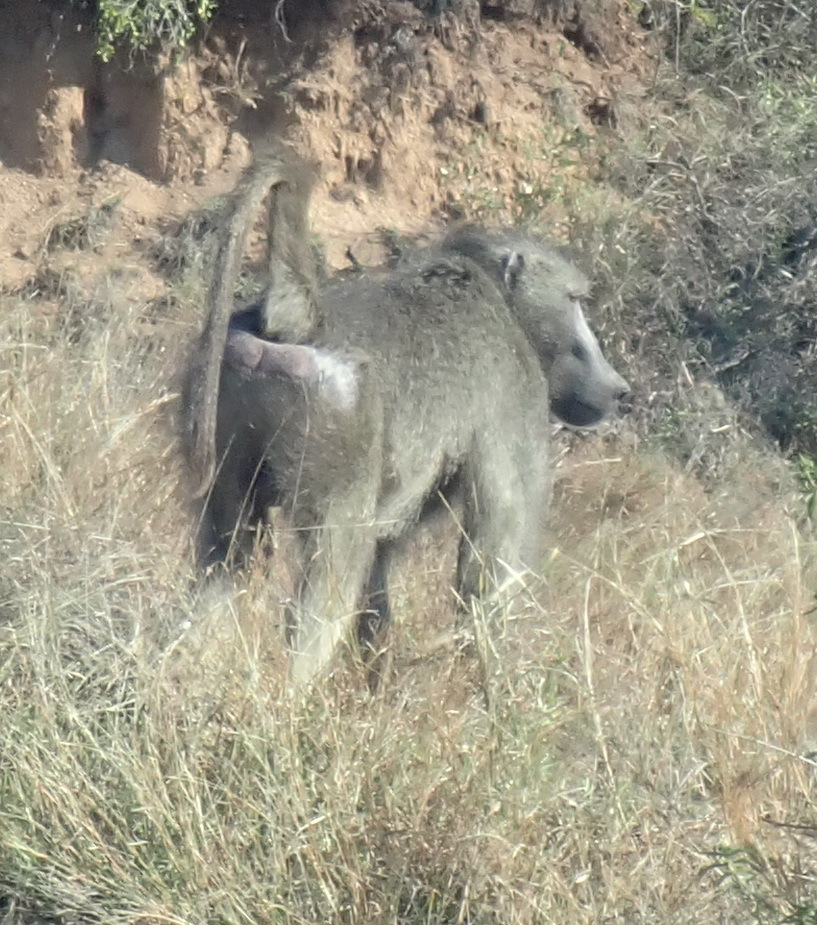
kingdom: Animalia
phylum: Chordata
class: Mammalia
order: Primates
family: Cercopithecidae
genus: Papio
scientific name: Papio ursinus
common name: Chacma baboon
